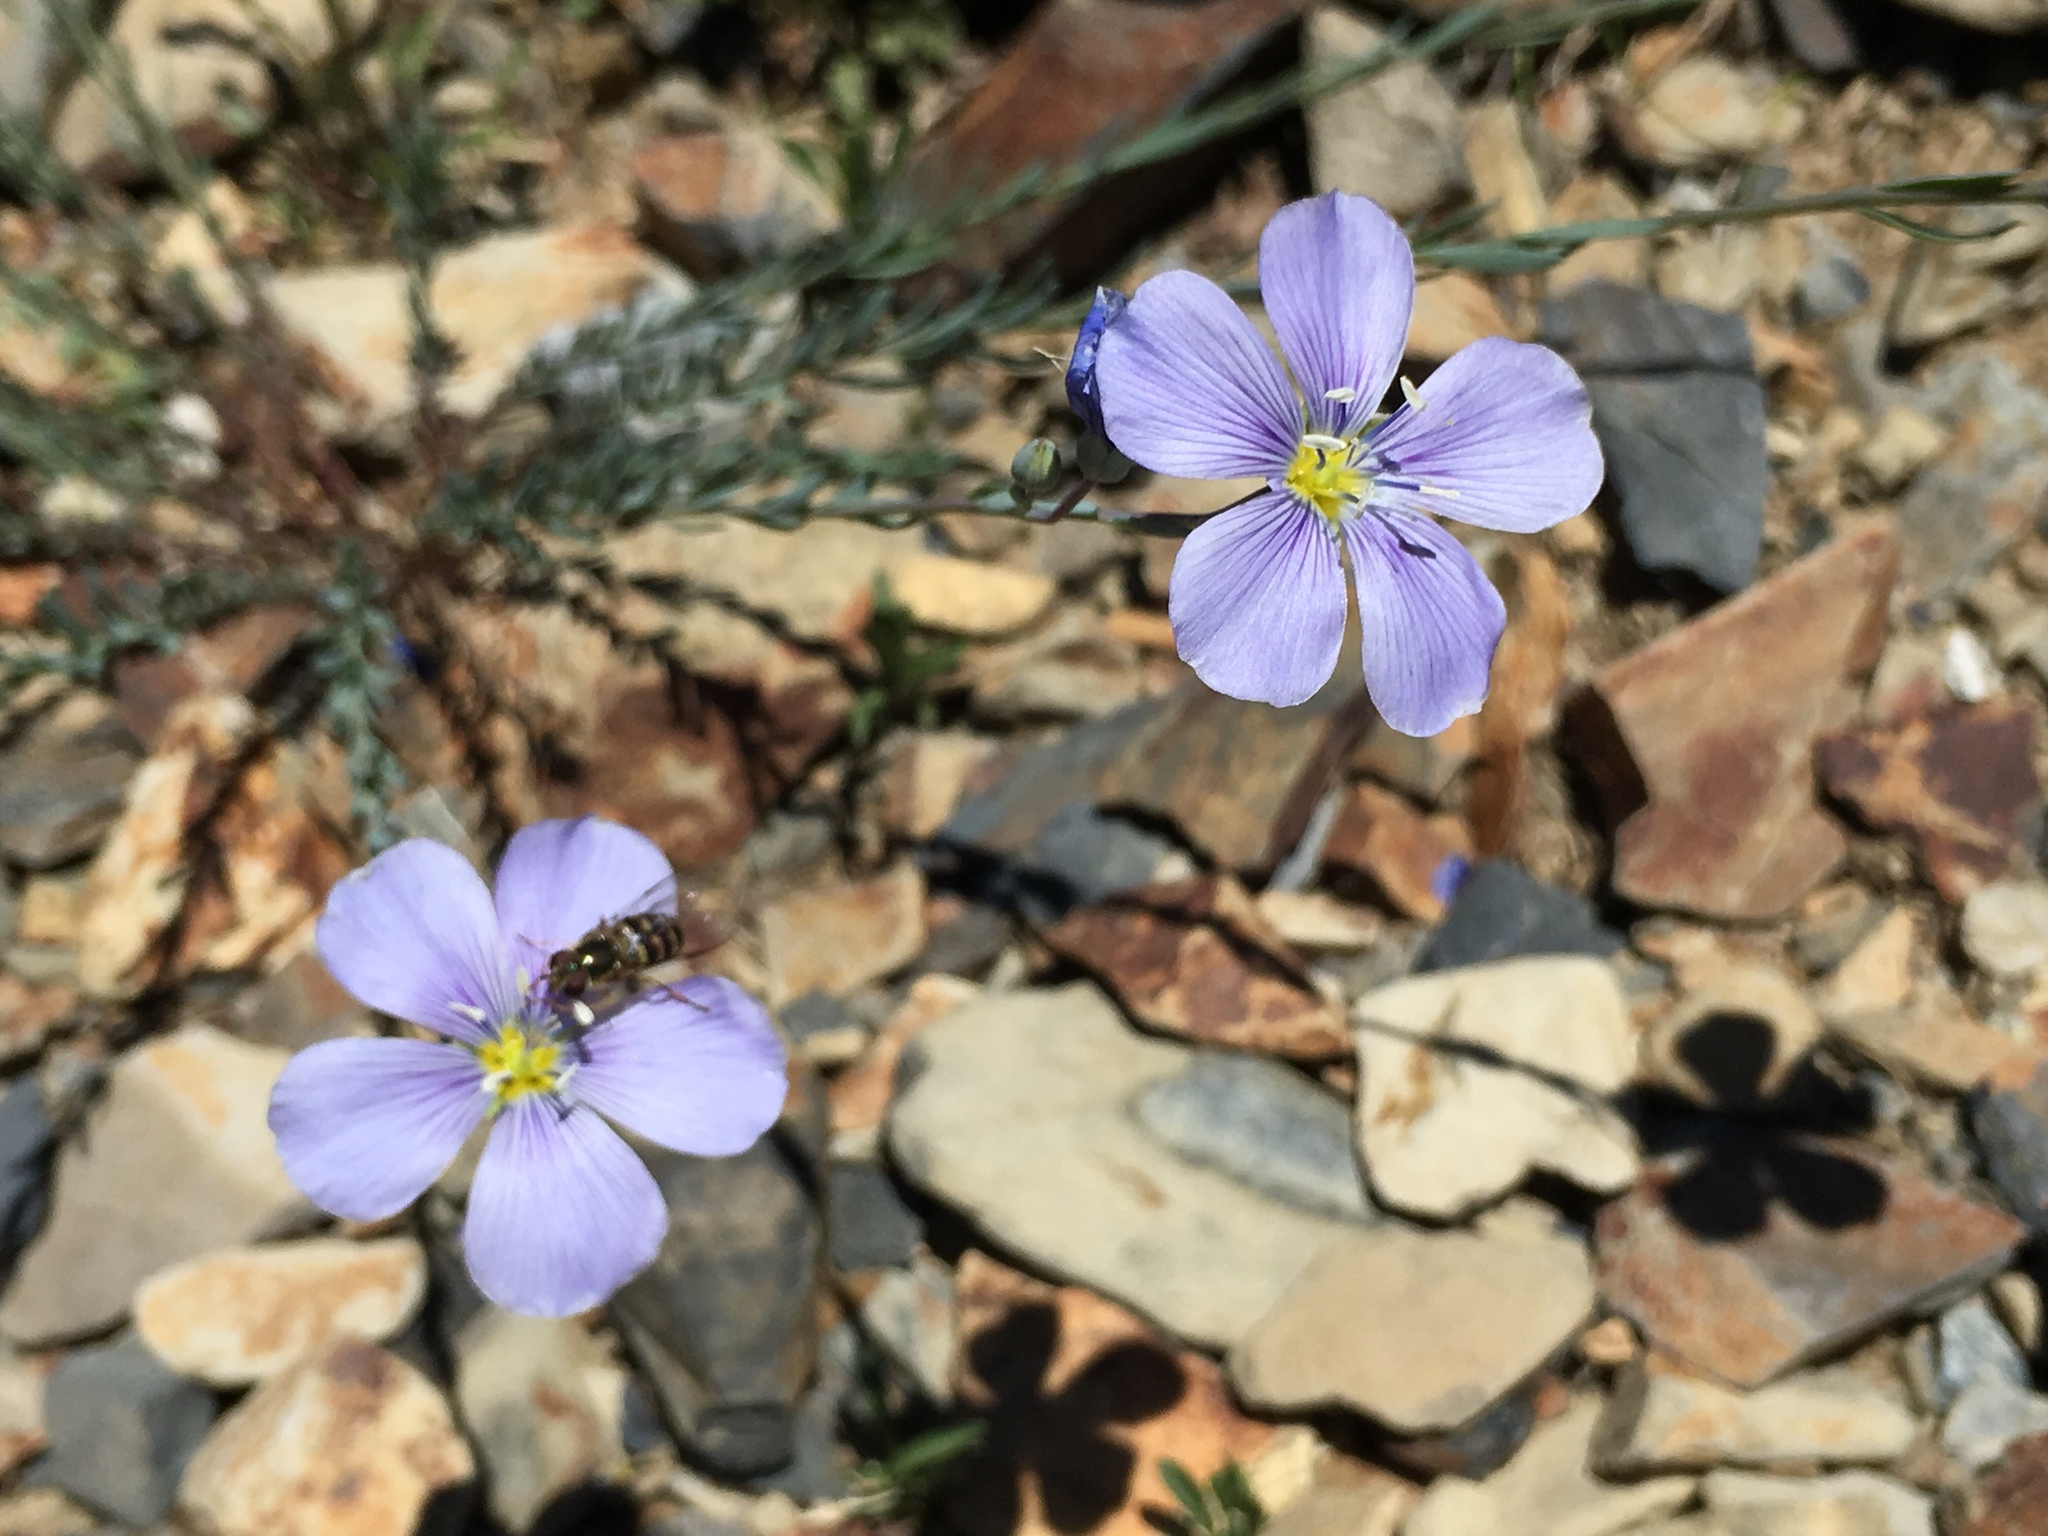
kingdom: Plantae
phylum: Tracheophyta
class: Magnoliopsida
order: Malpighiales
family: Linaceae
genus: Linum
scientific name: Linum lewisii
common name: Prairie flax
